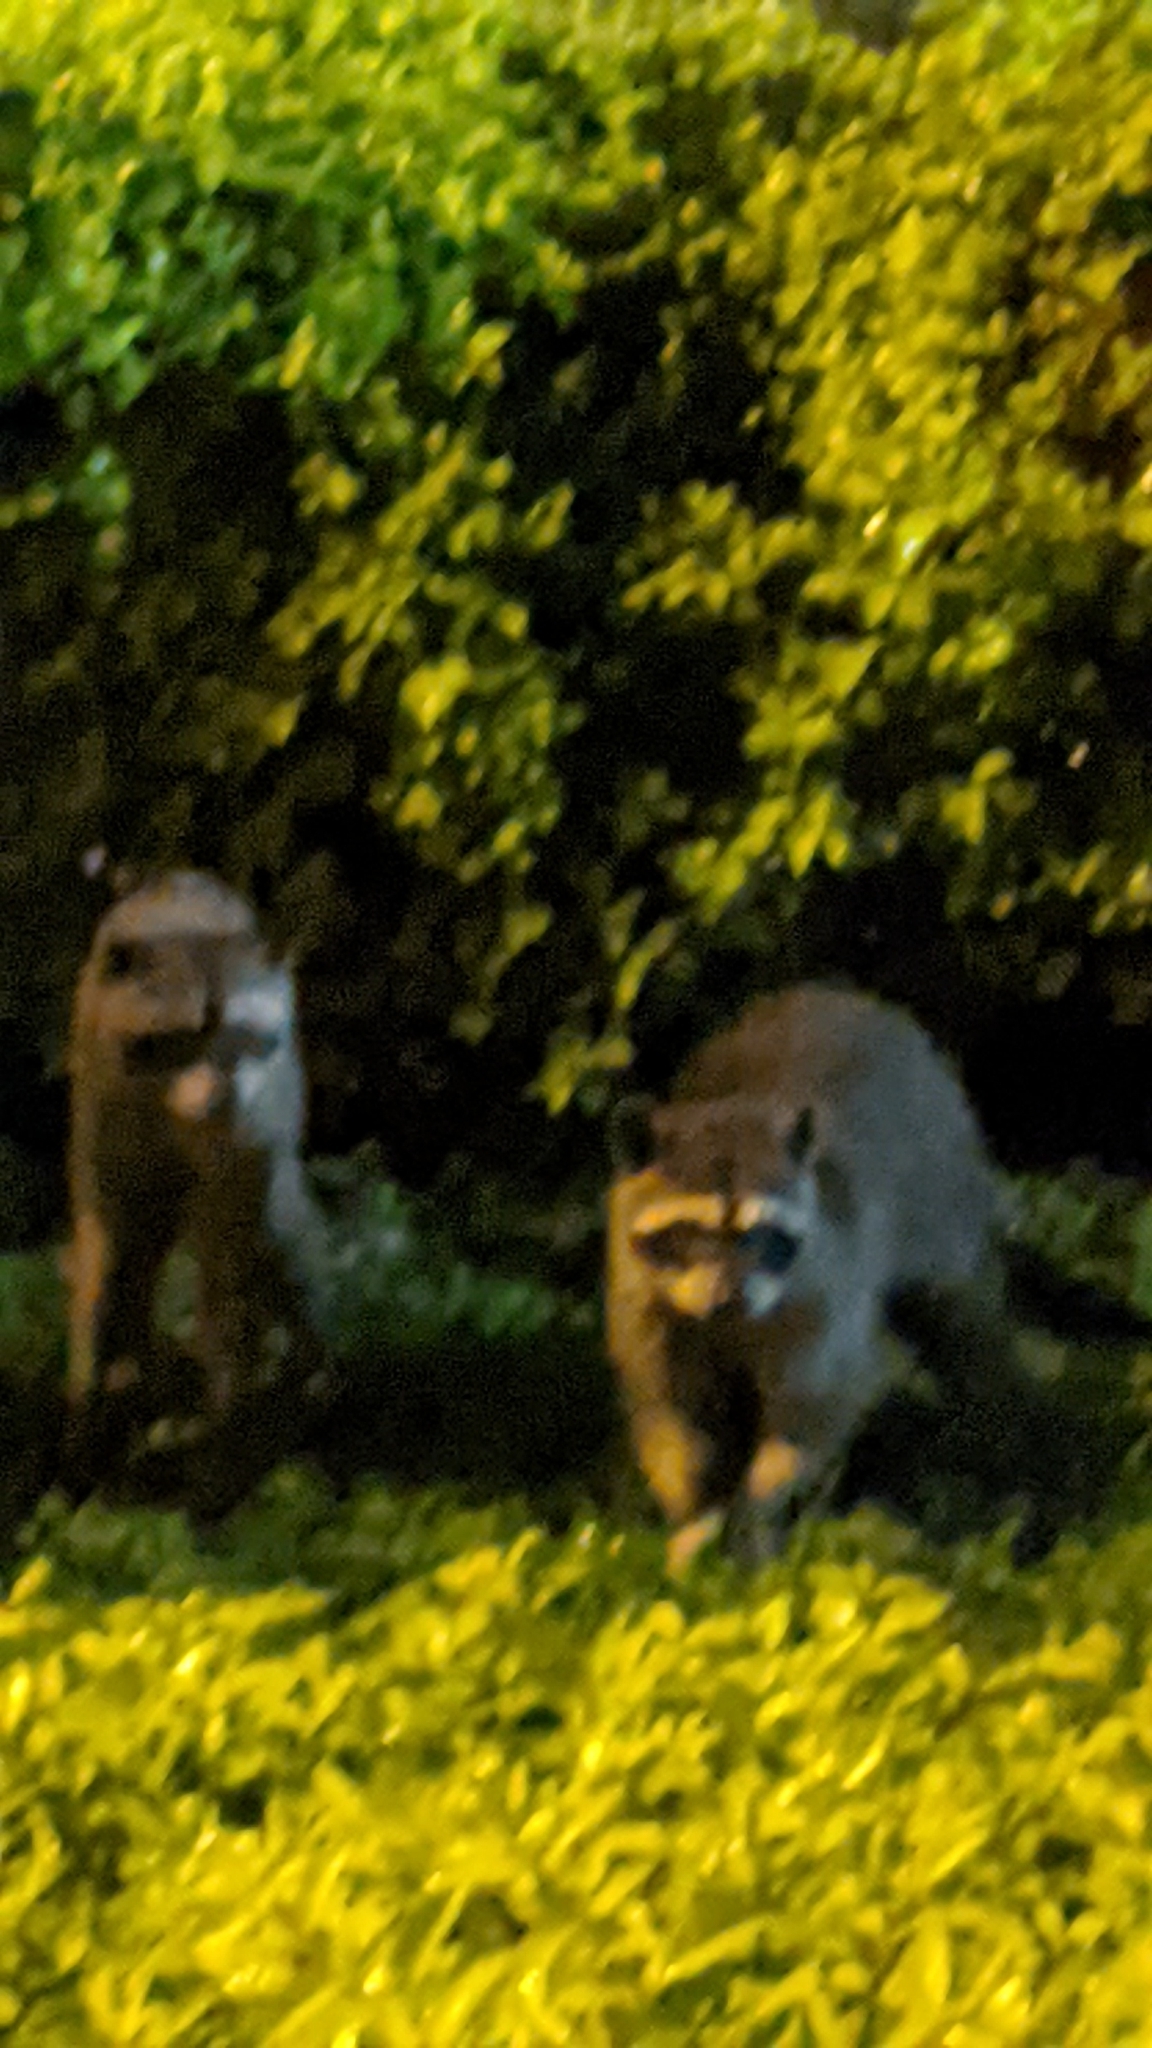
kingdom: Animalia
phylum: Chordata
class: Mammalia
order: Carnivora
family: Procyonidae
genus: Procyon
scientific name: Procyon lotor
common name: Raccoon
